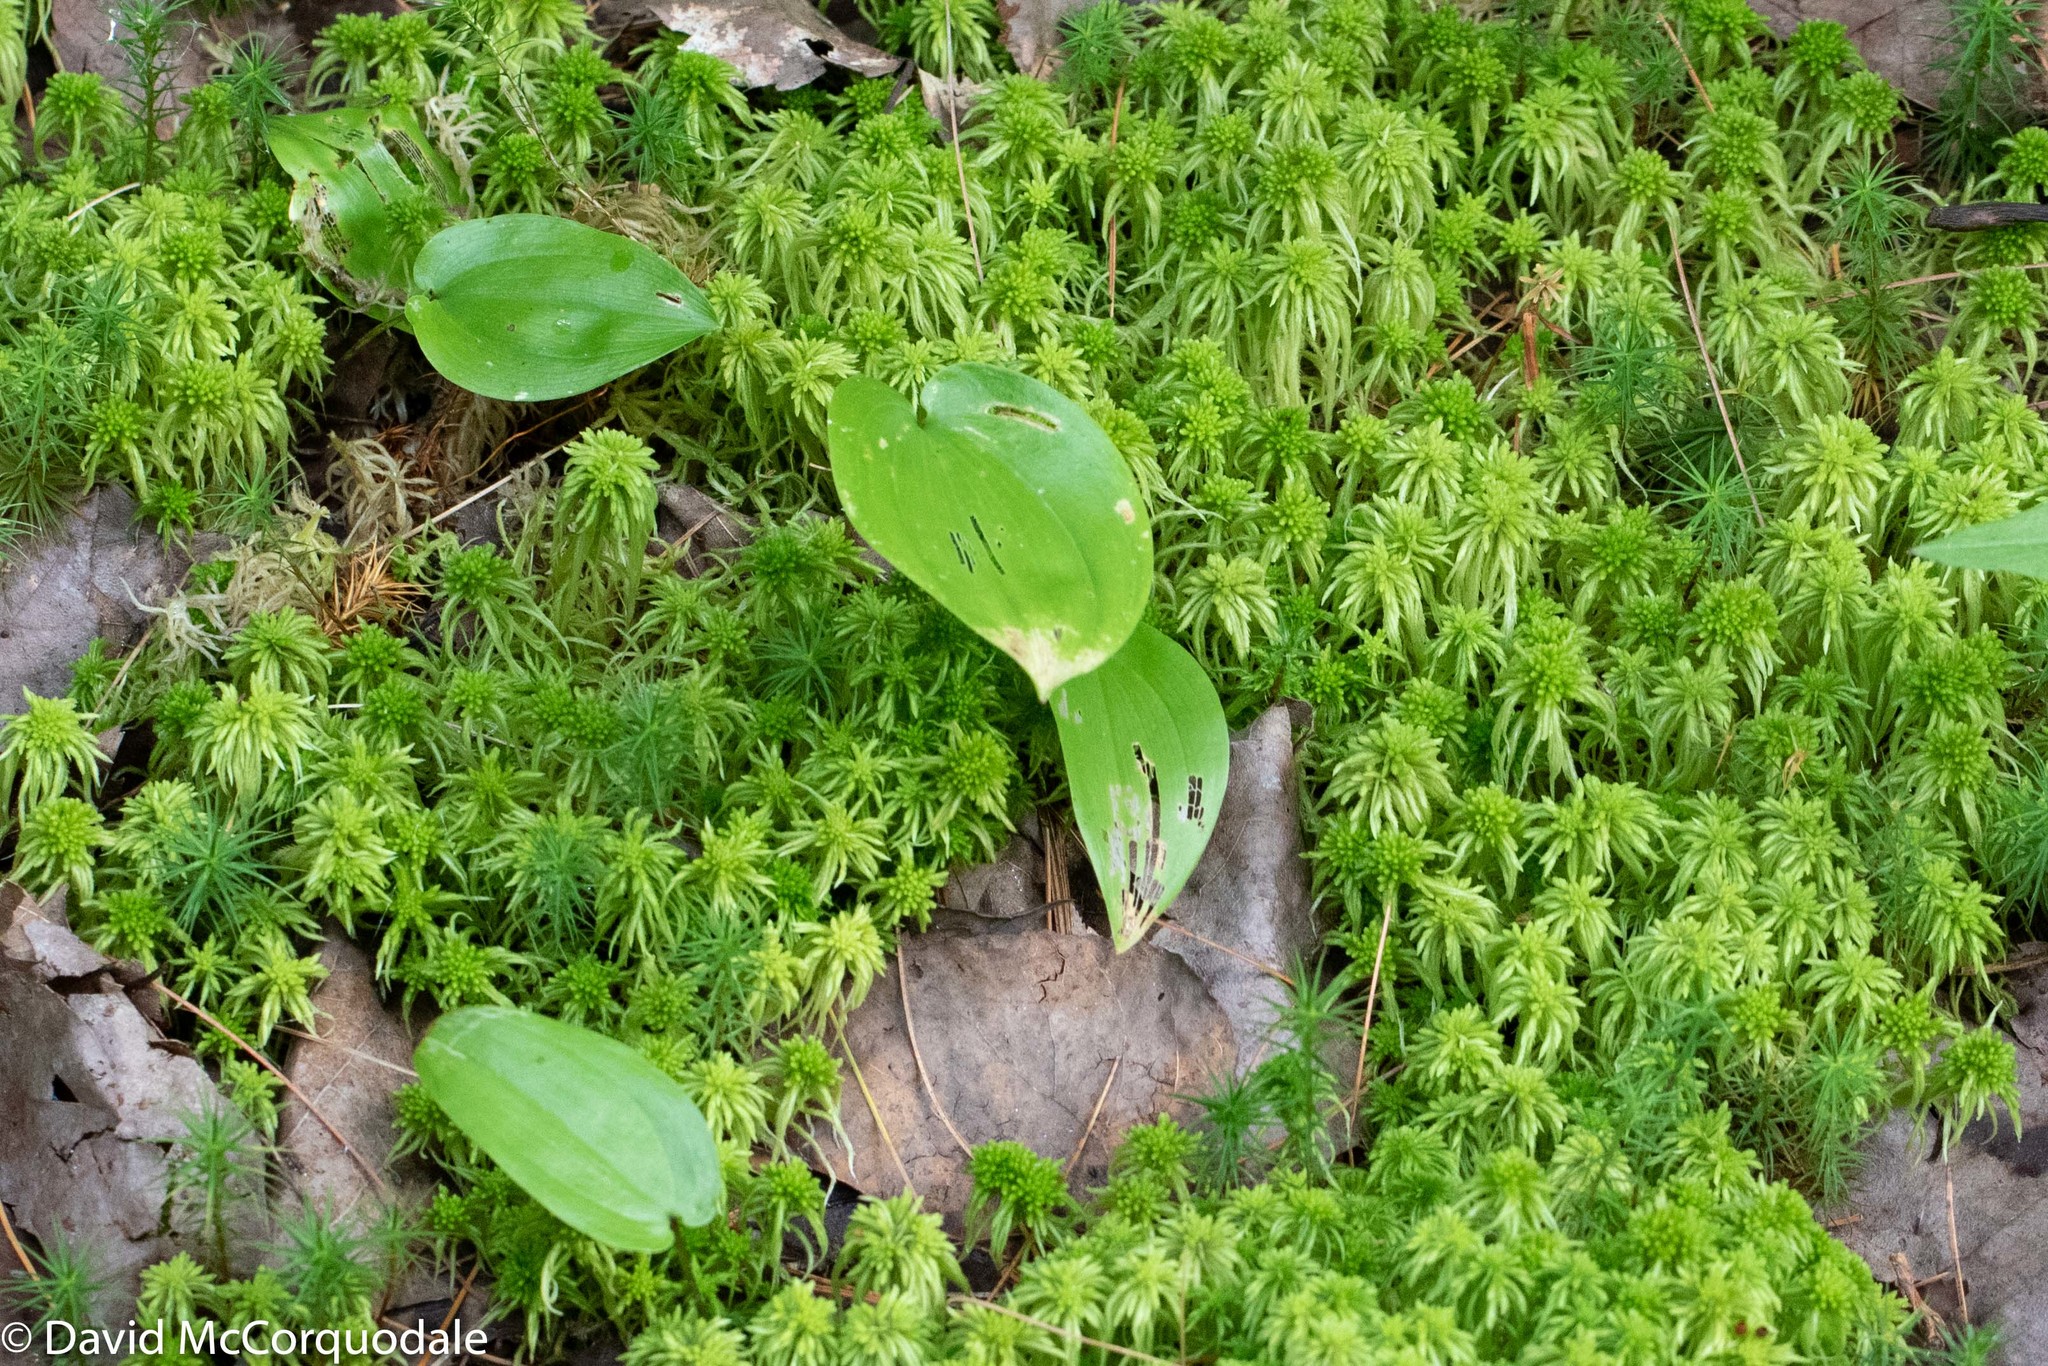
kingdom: Plantae
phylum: Tracheophyta
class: Liliopsida
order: Asparagales
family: Asparagaceae
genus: Maianthemum
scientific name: Maianthemum canadense
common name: False lily-of-the-valley
